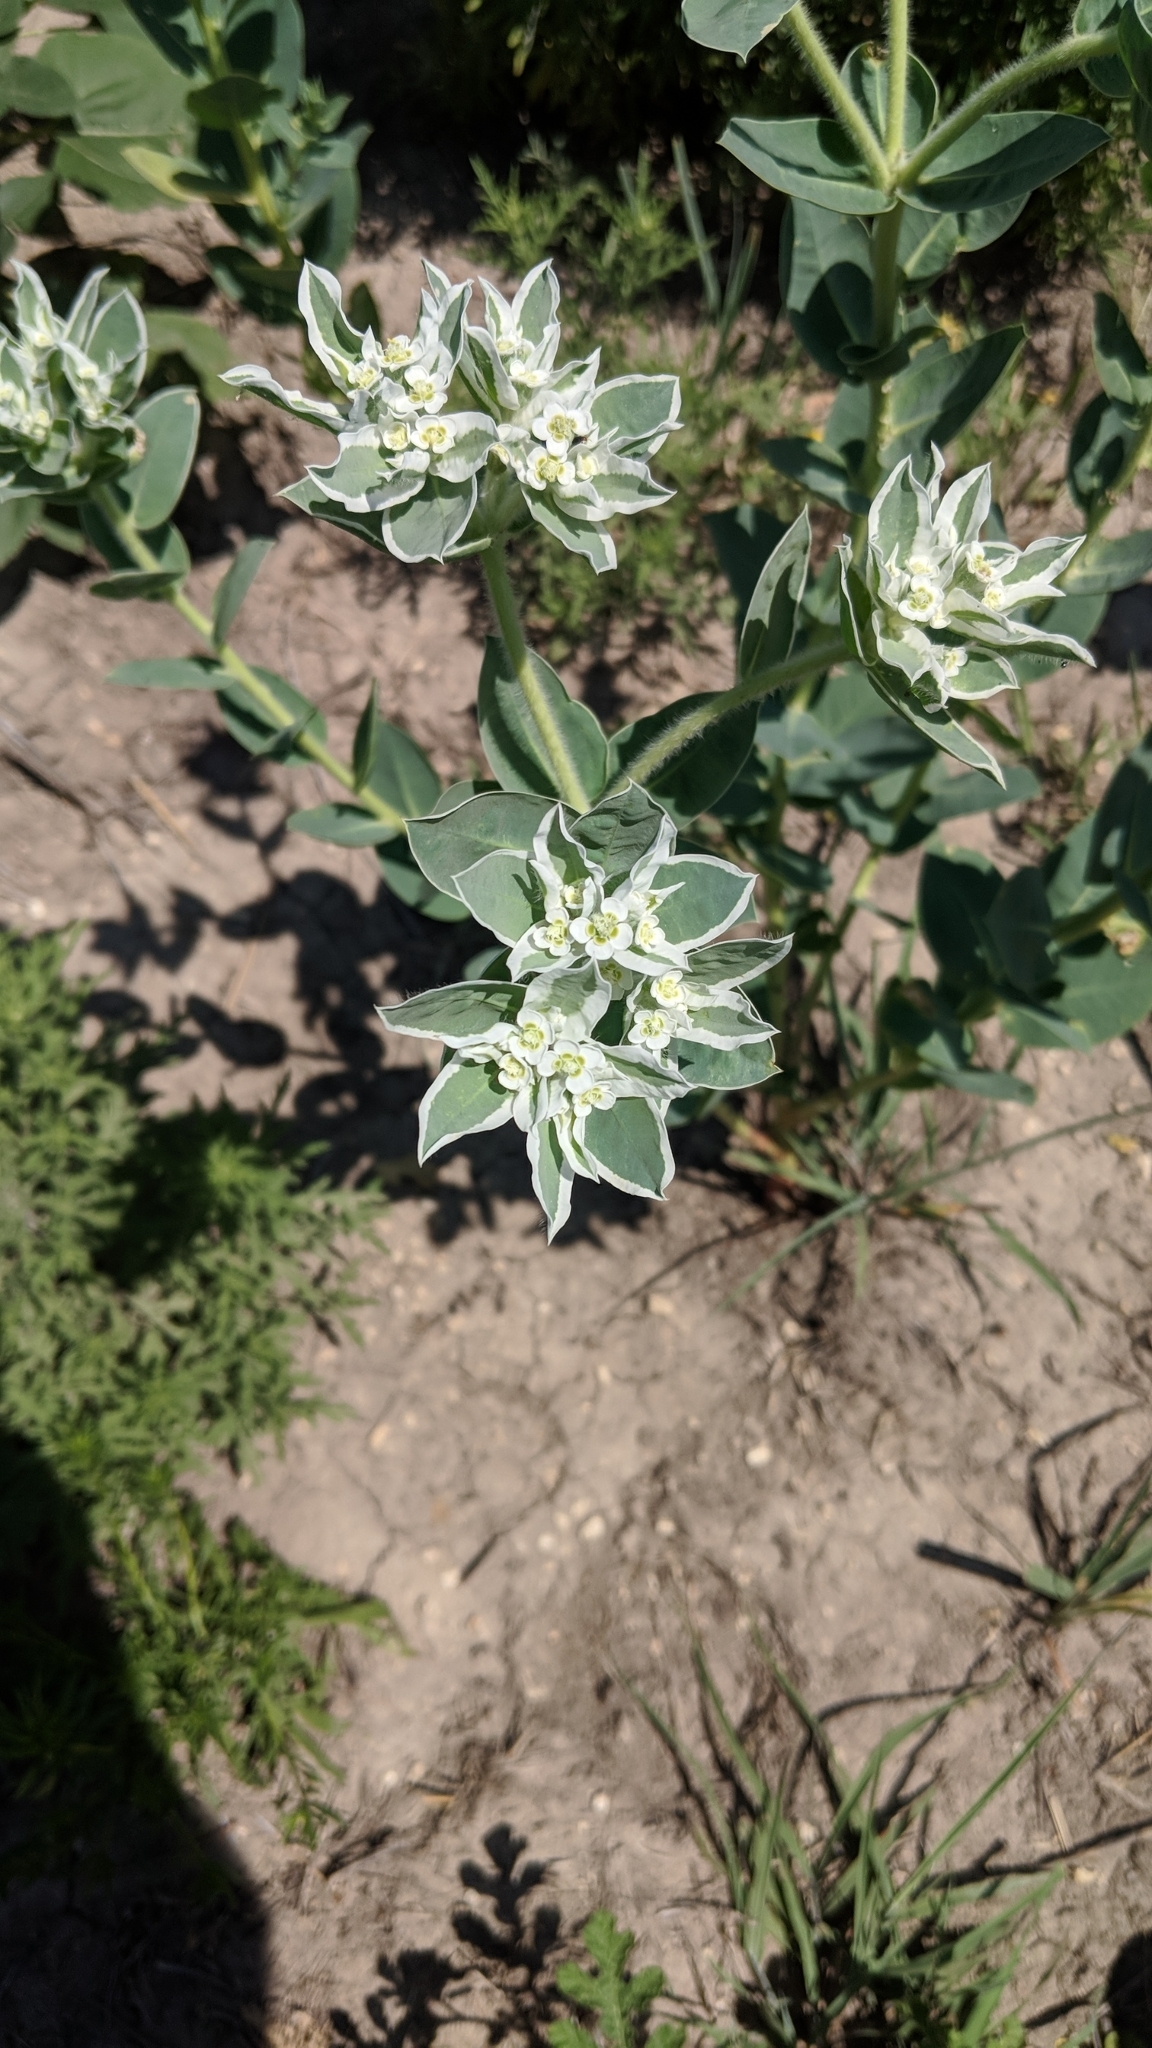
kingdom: Plantae
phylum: Tracheophyta
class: Magnoliopsida
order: Malpighiales
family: Euphorbiaceae
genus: Euphorbia
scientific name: Euphorbia marginata
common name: Ghostweed
